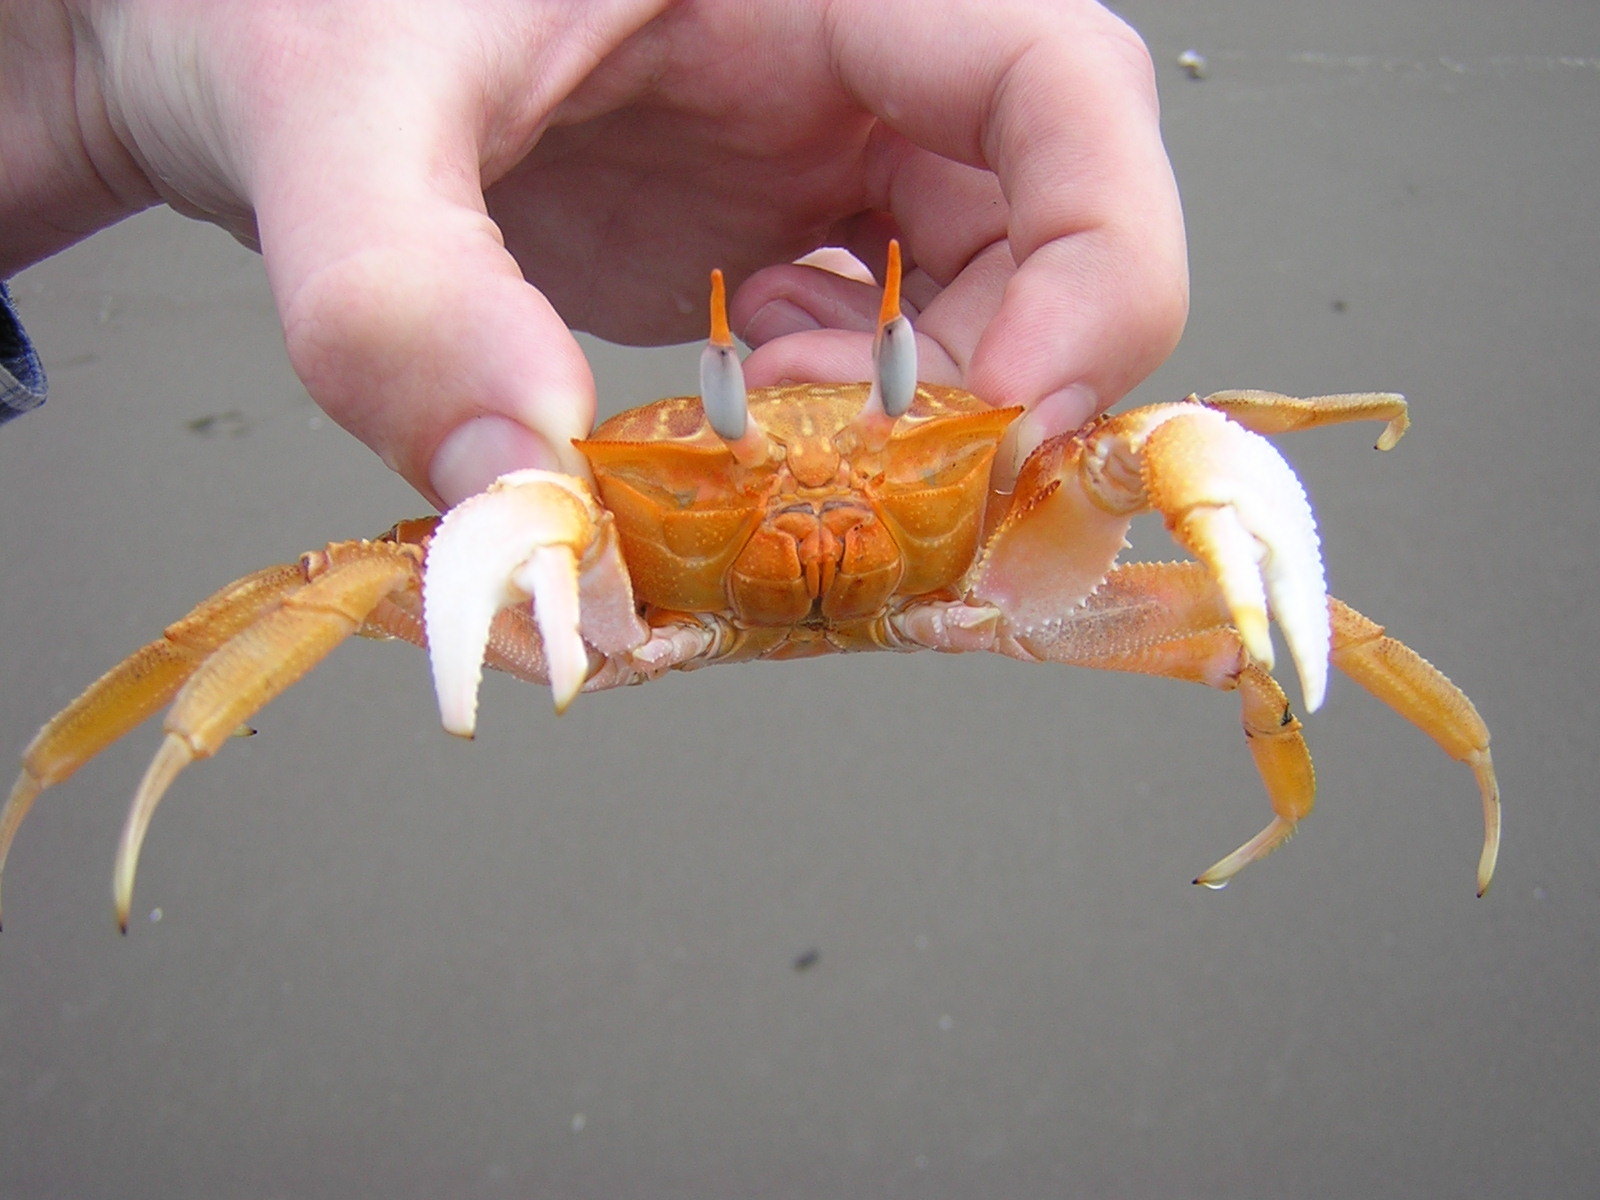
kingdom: Animalia
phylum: Arthropoda
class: Malacostraca
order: Decapoda
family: Ocypodidae
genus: Ocypode
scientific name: Ocypode gaudichaudii
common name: Pacific ghost crab
